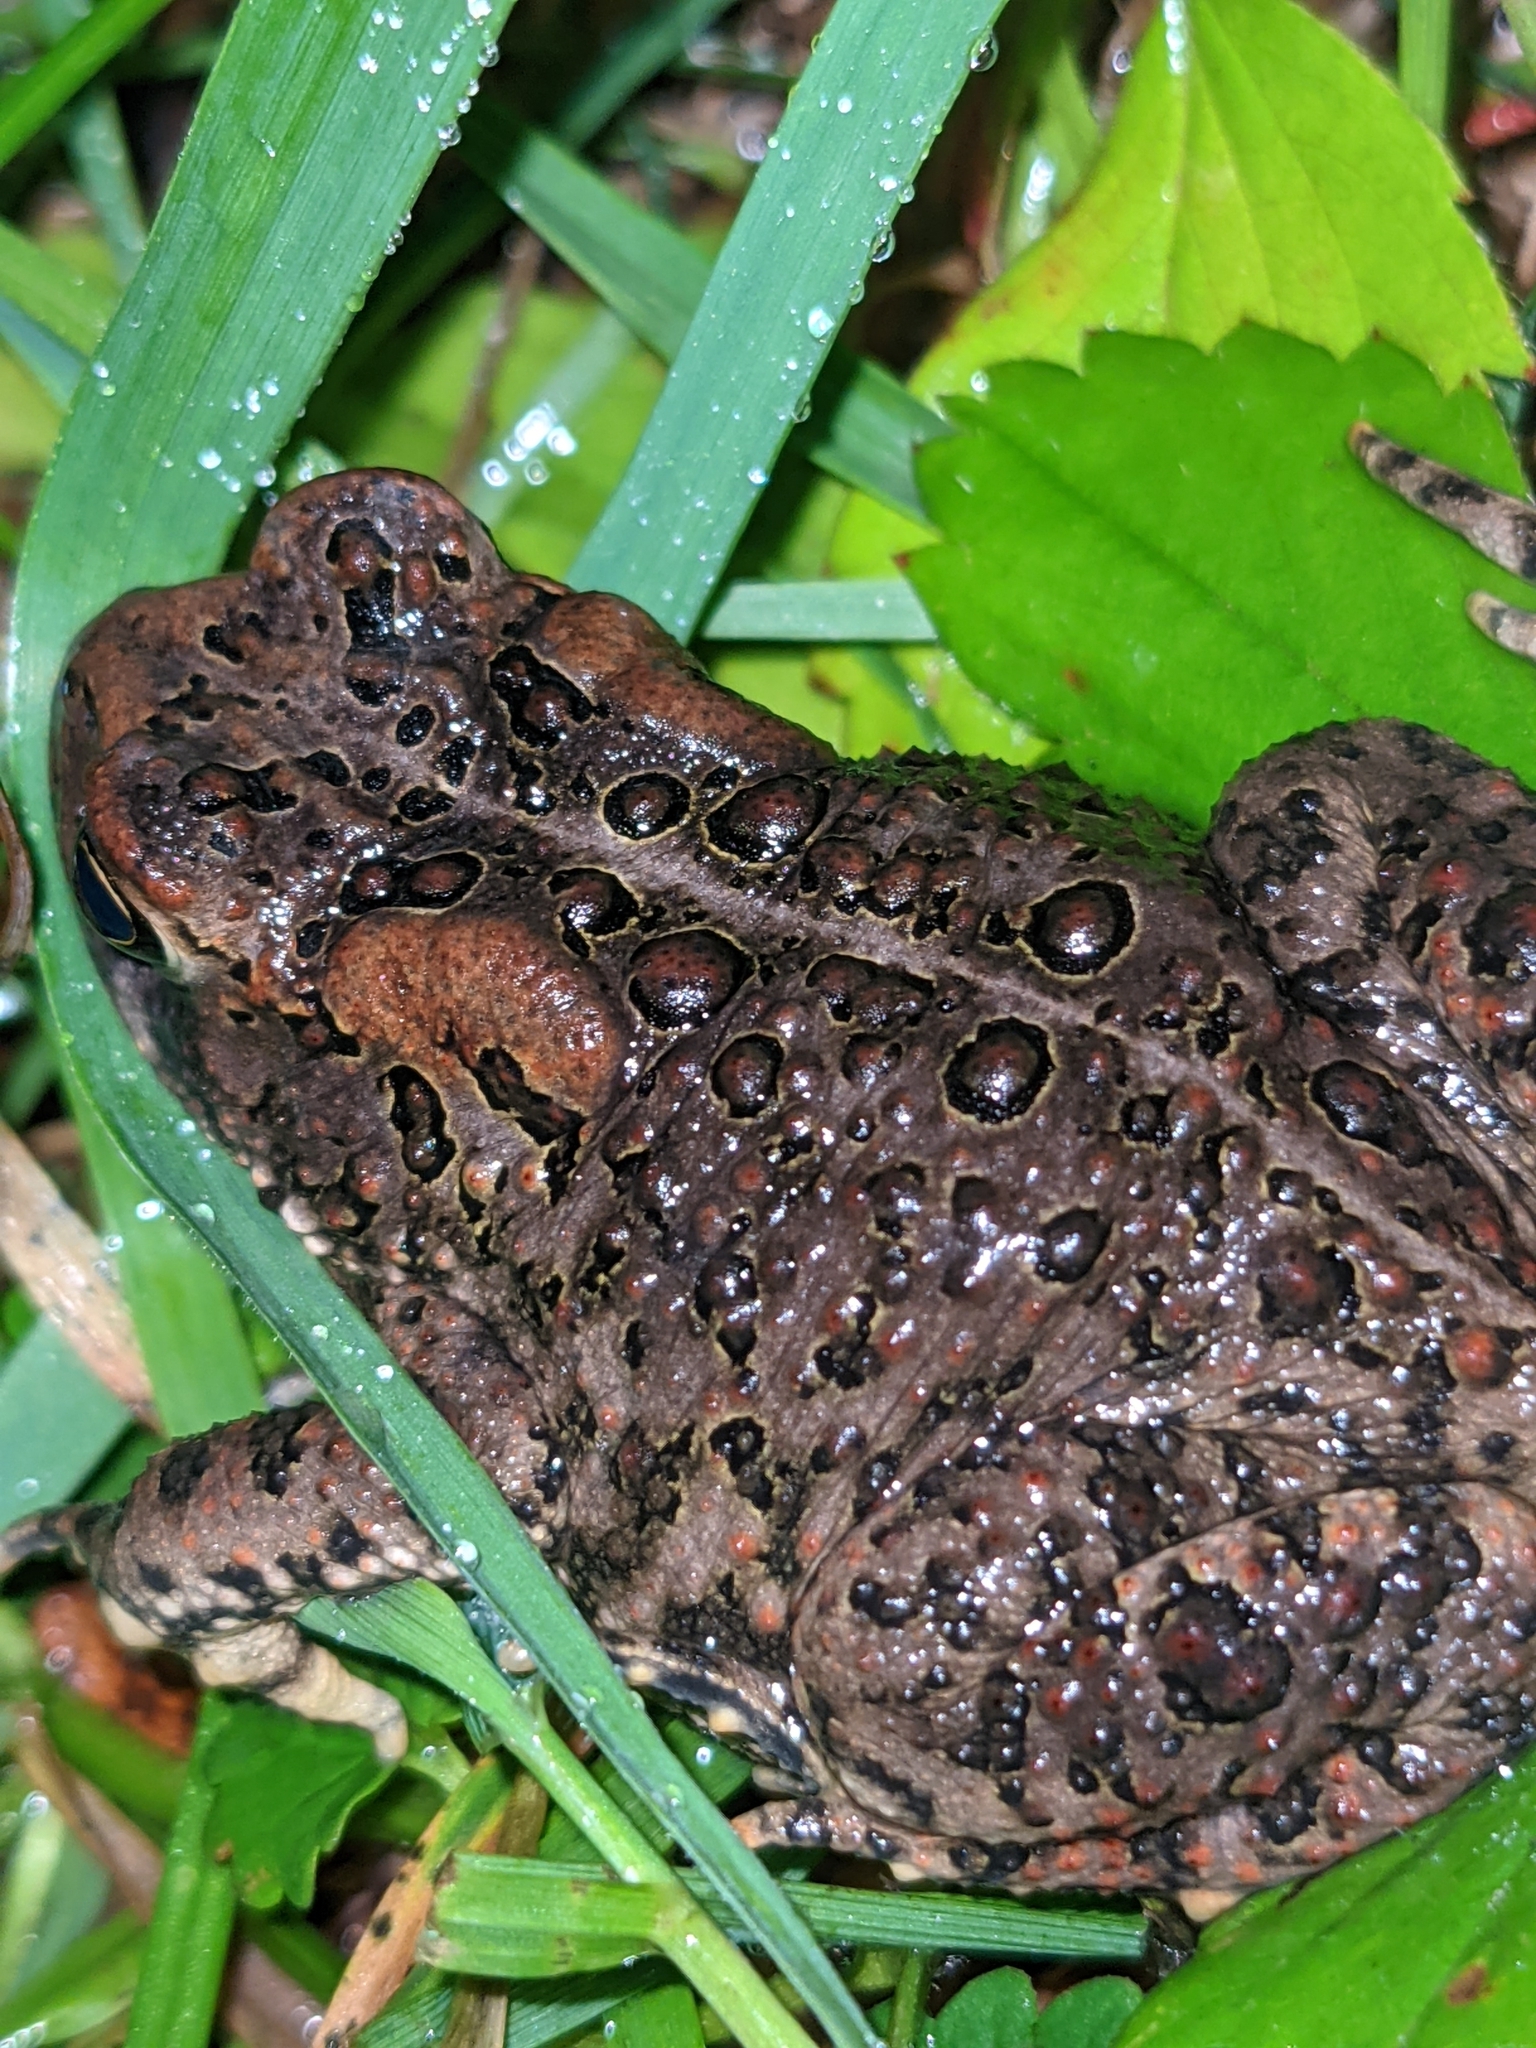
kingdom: Animalia
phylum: Chordata
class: Amphibia
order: Anura
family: Bufonidae
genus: Anaxyrus
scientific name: Anaxyrus americanus
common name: American toad
